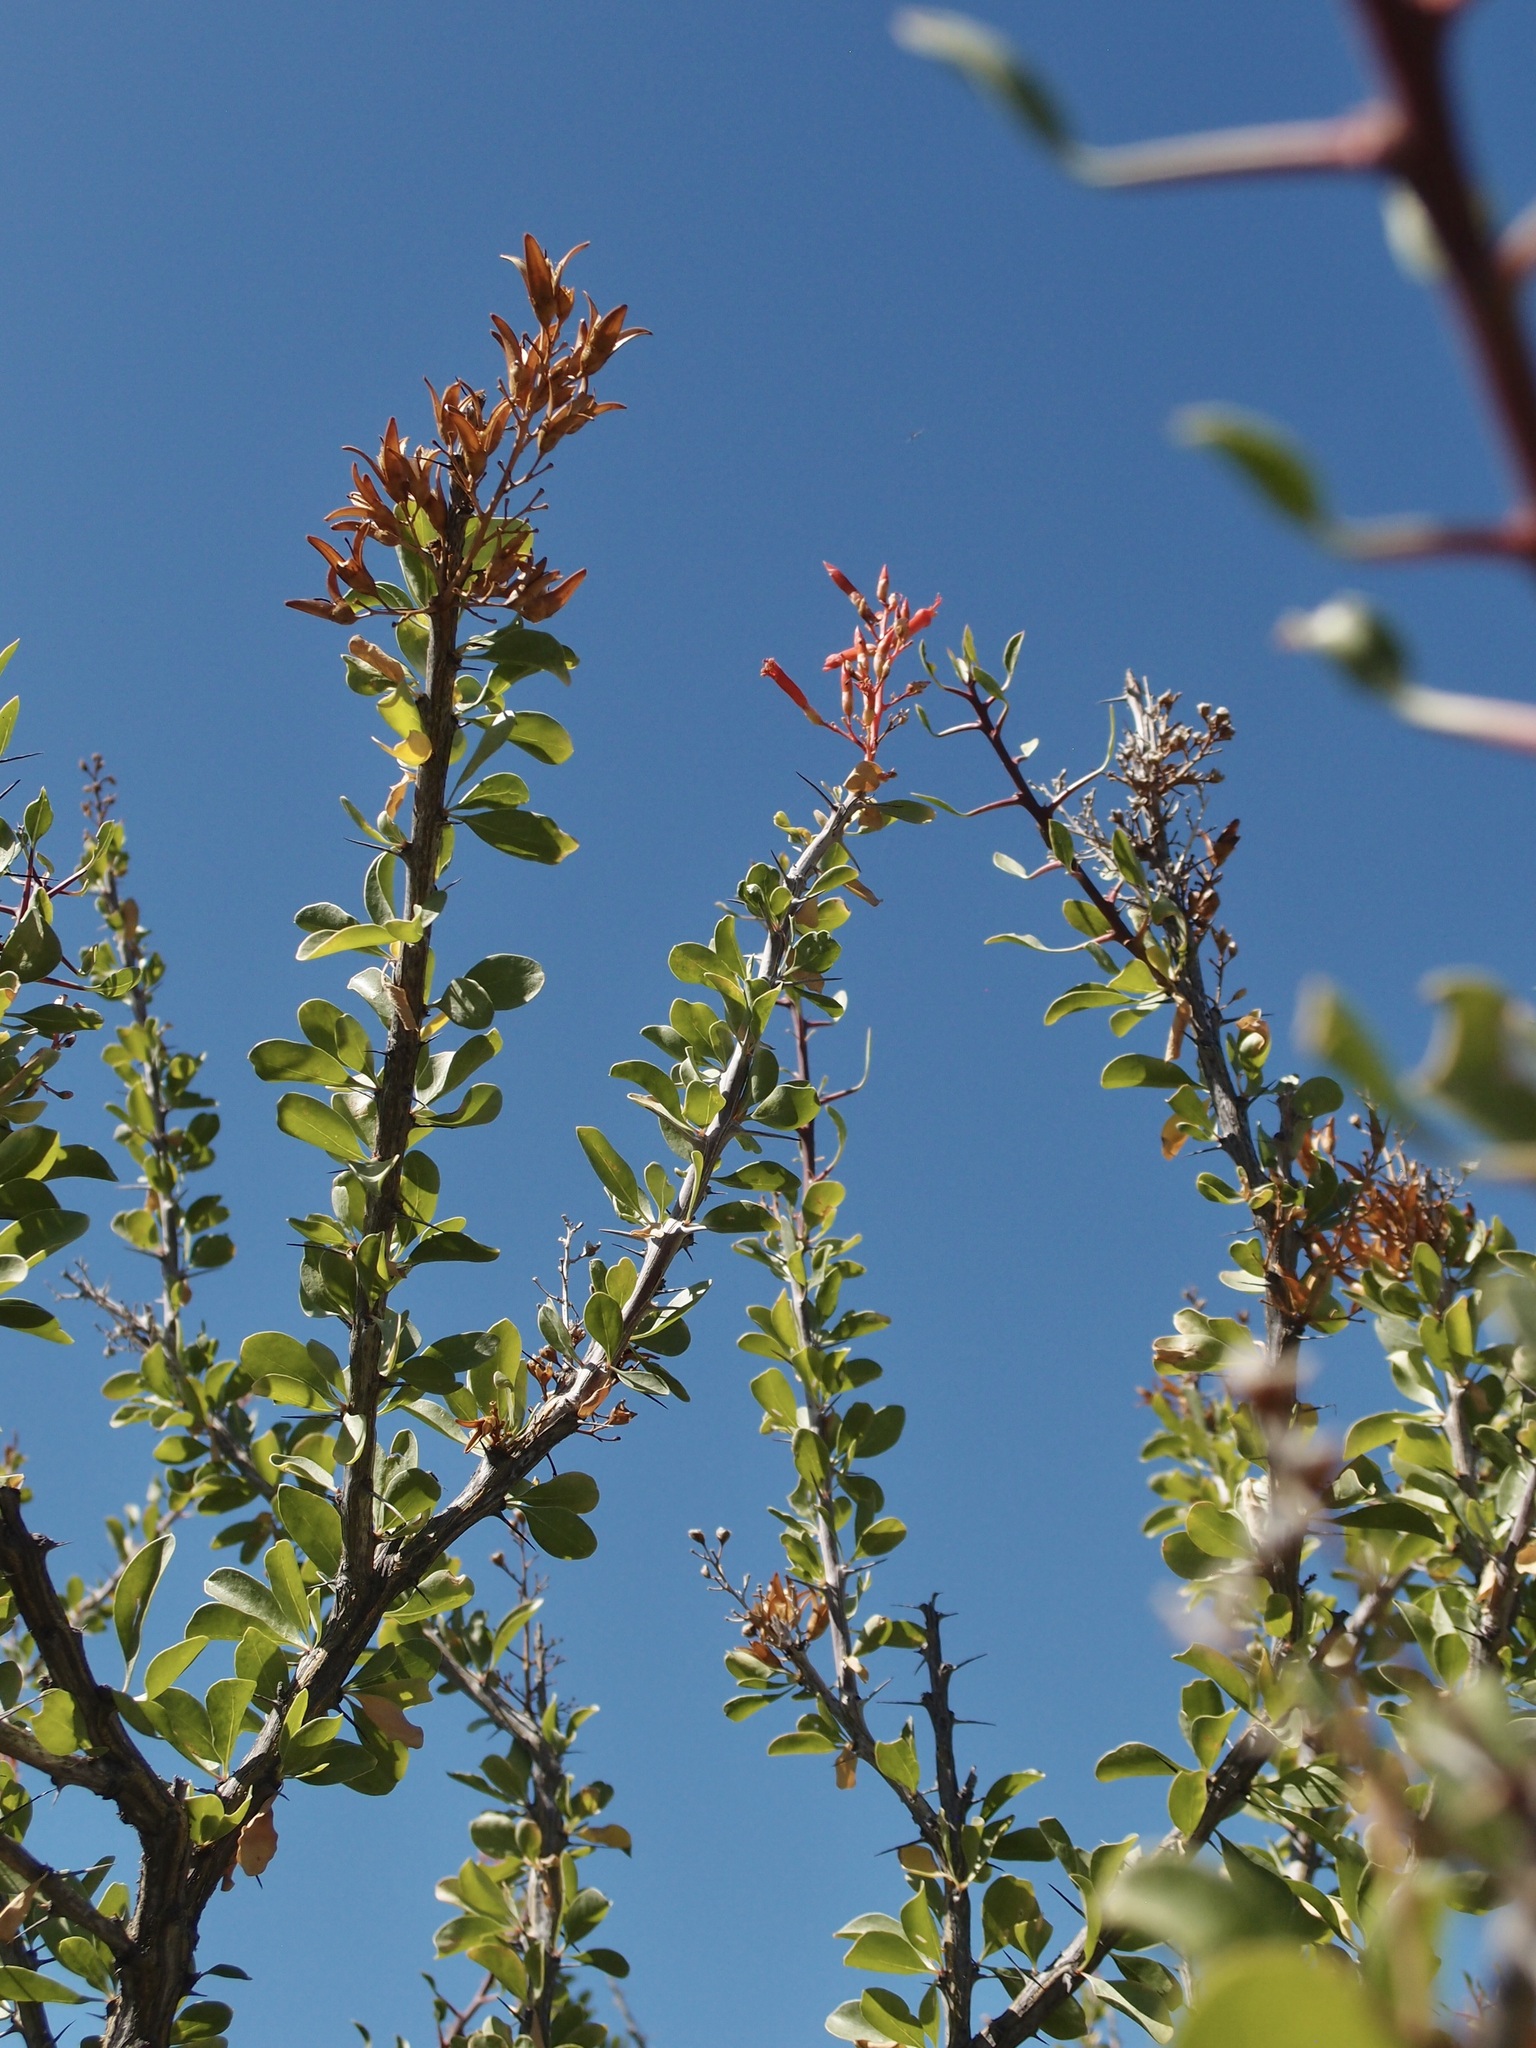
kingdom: Plantae
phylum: Tracheophyta
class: Magnoliopsida
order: Ericales
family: Fouquieriaceae
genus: Fouquieria
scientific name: Fouquieria diguetii
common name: Adam's tree
